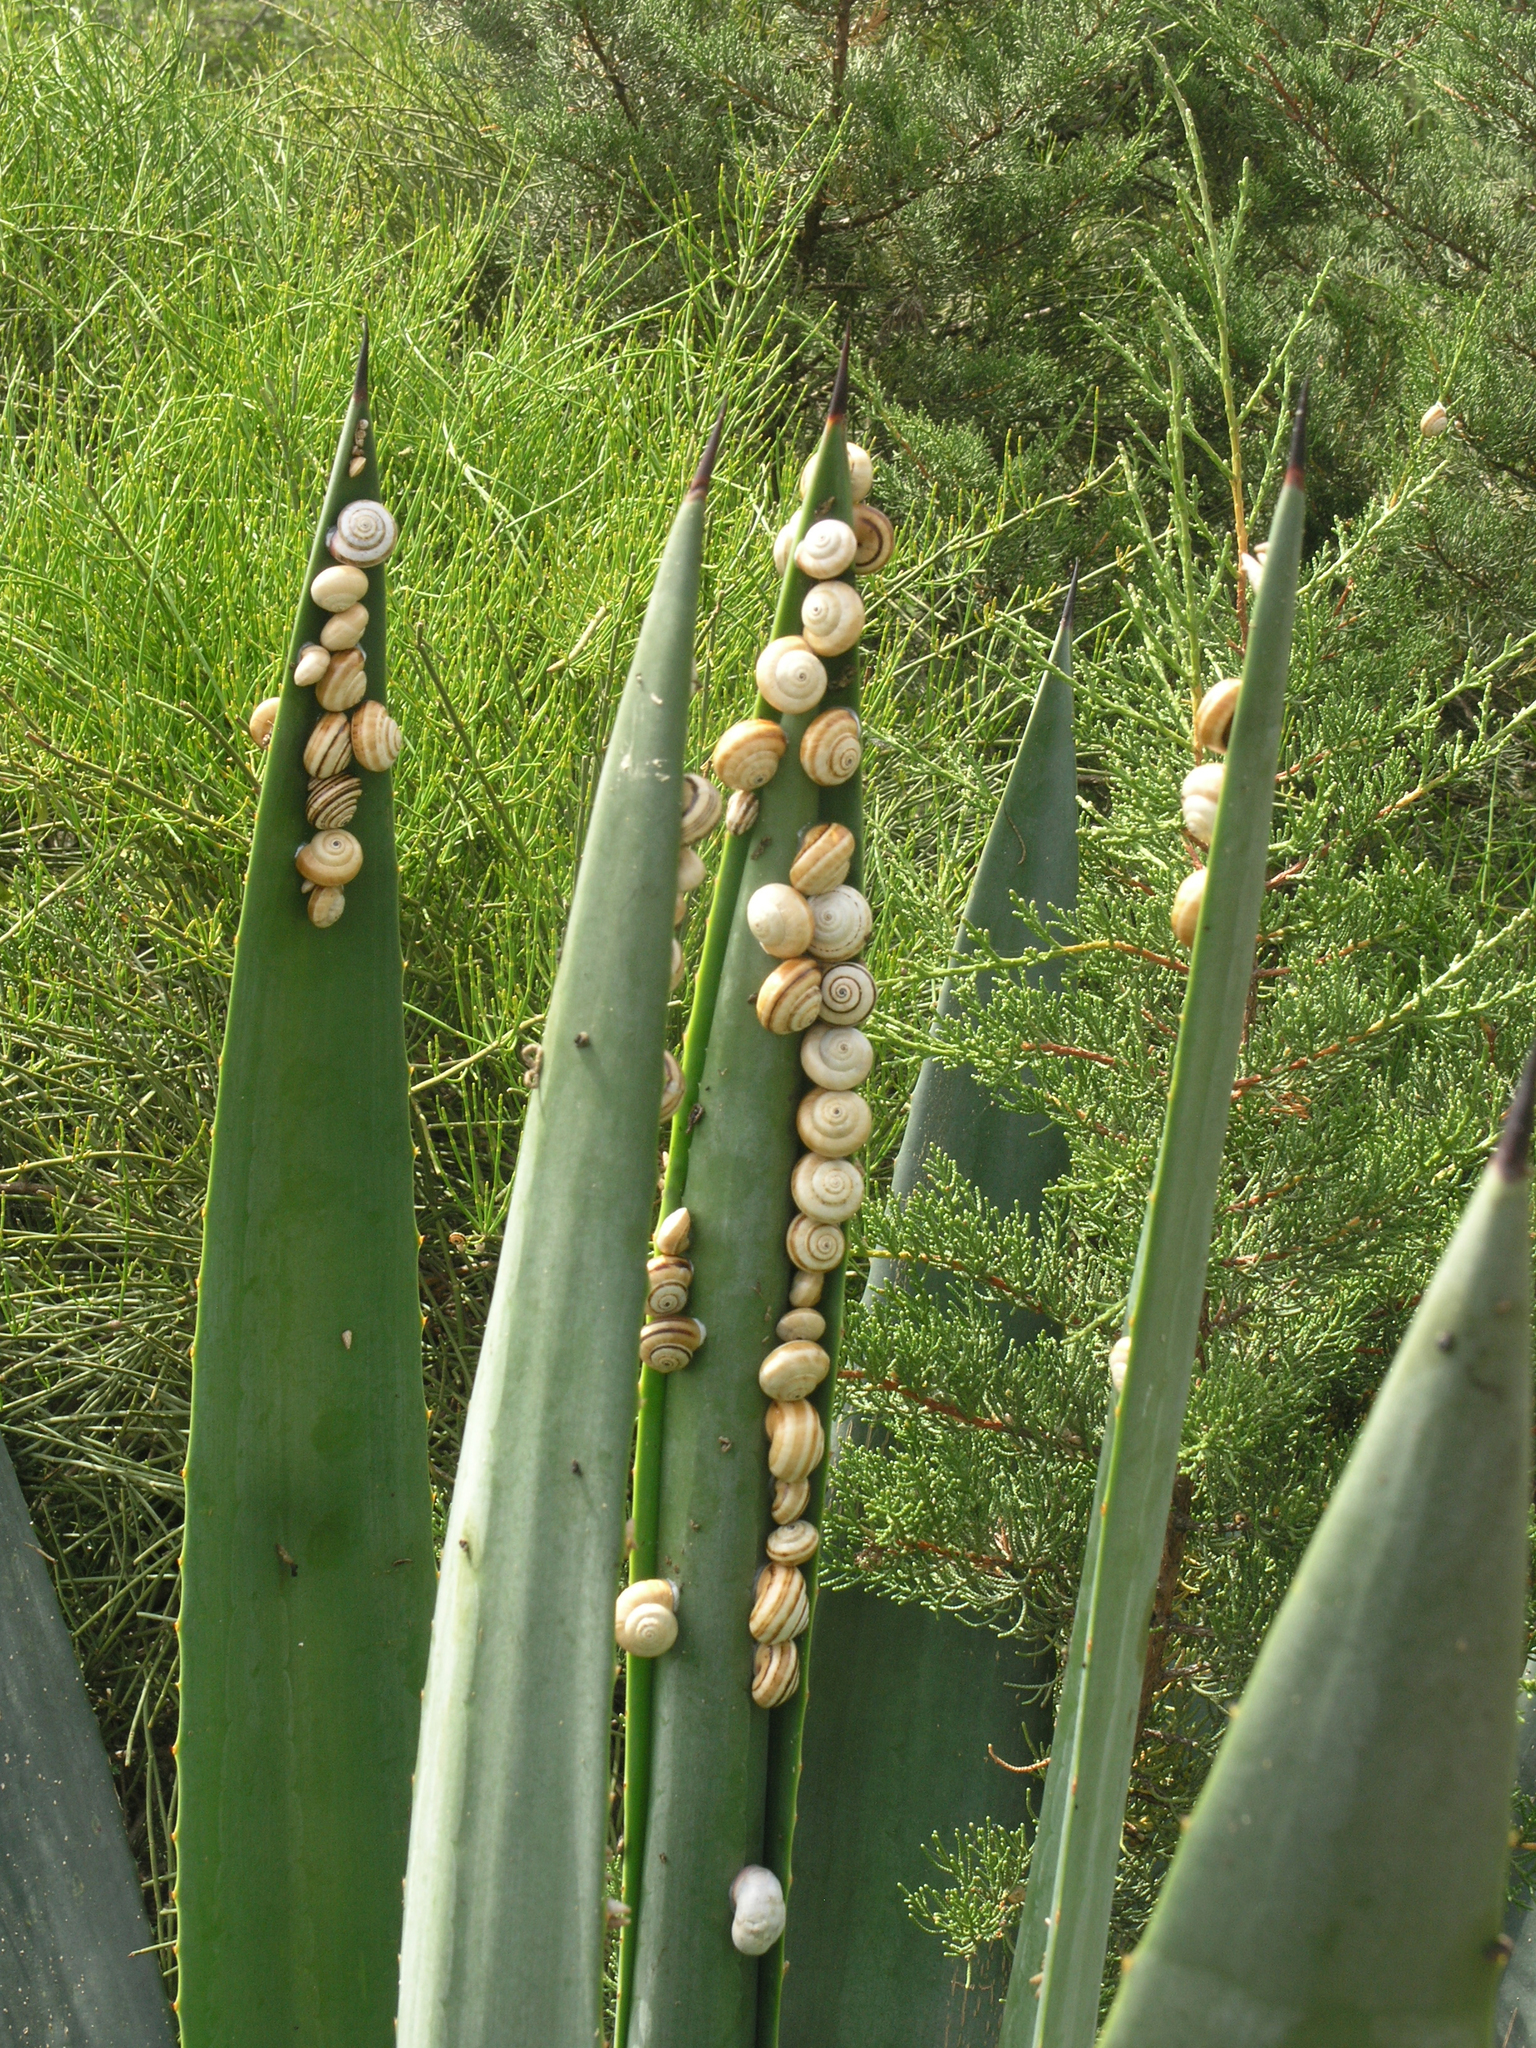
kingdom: Animalia
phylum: Mollusca
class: Gastropoda
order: Stylommatophora
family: Helicidae
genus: Theba
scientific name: Theba pisana
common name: White snail
